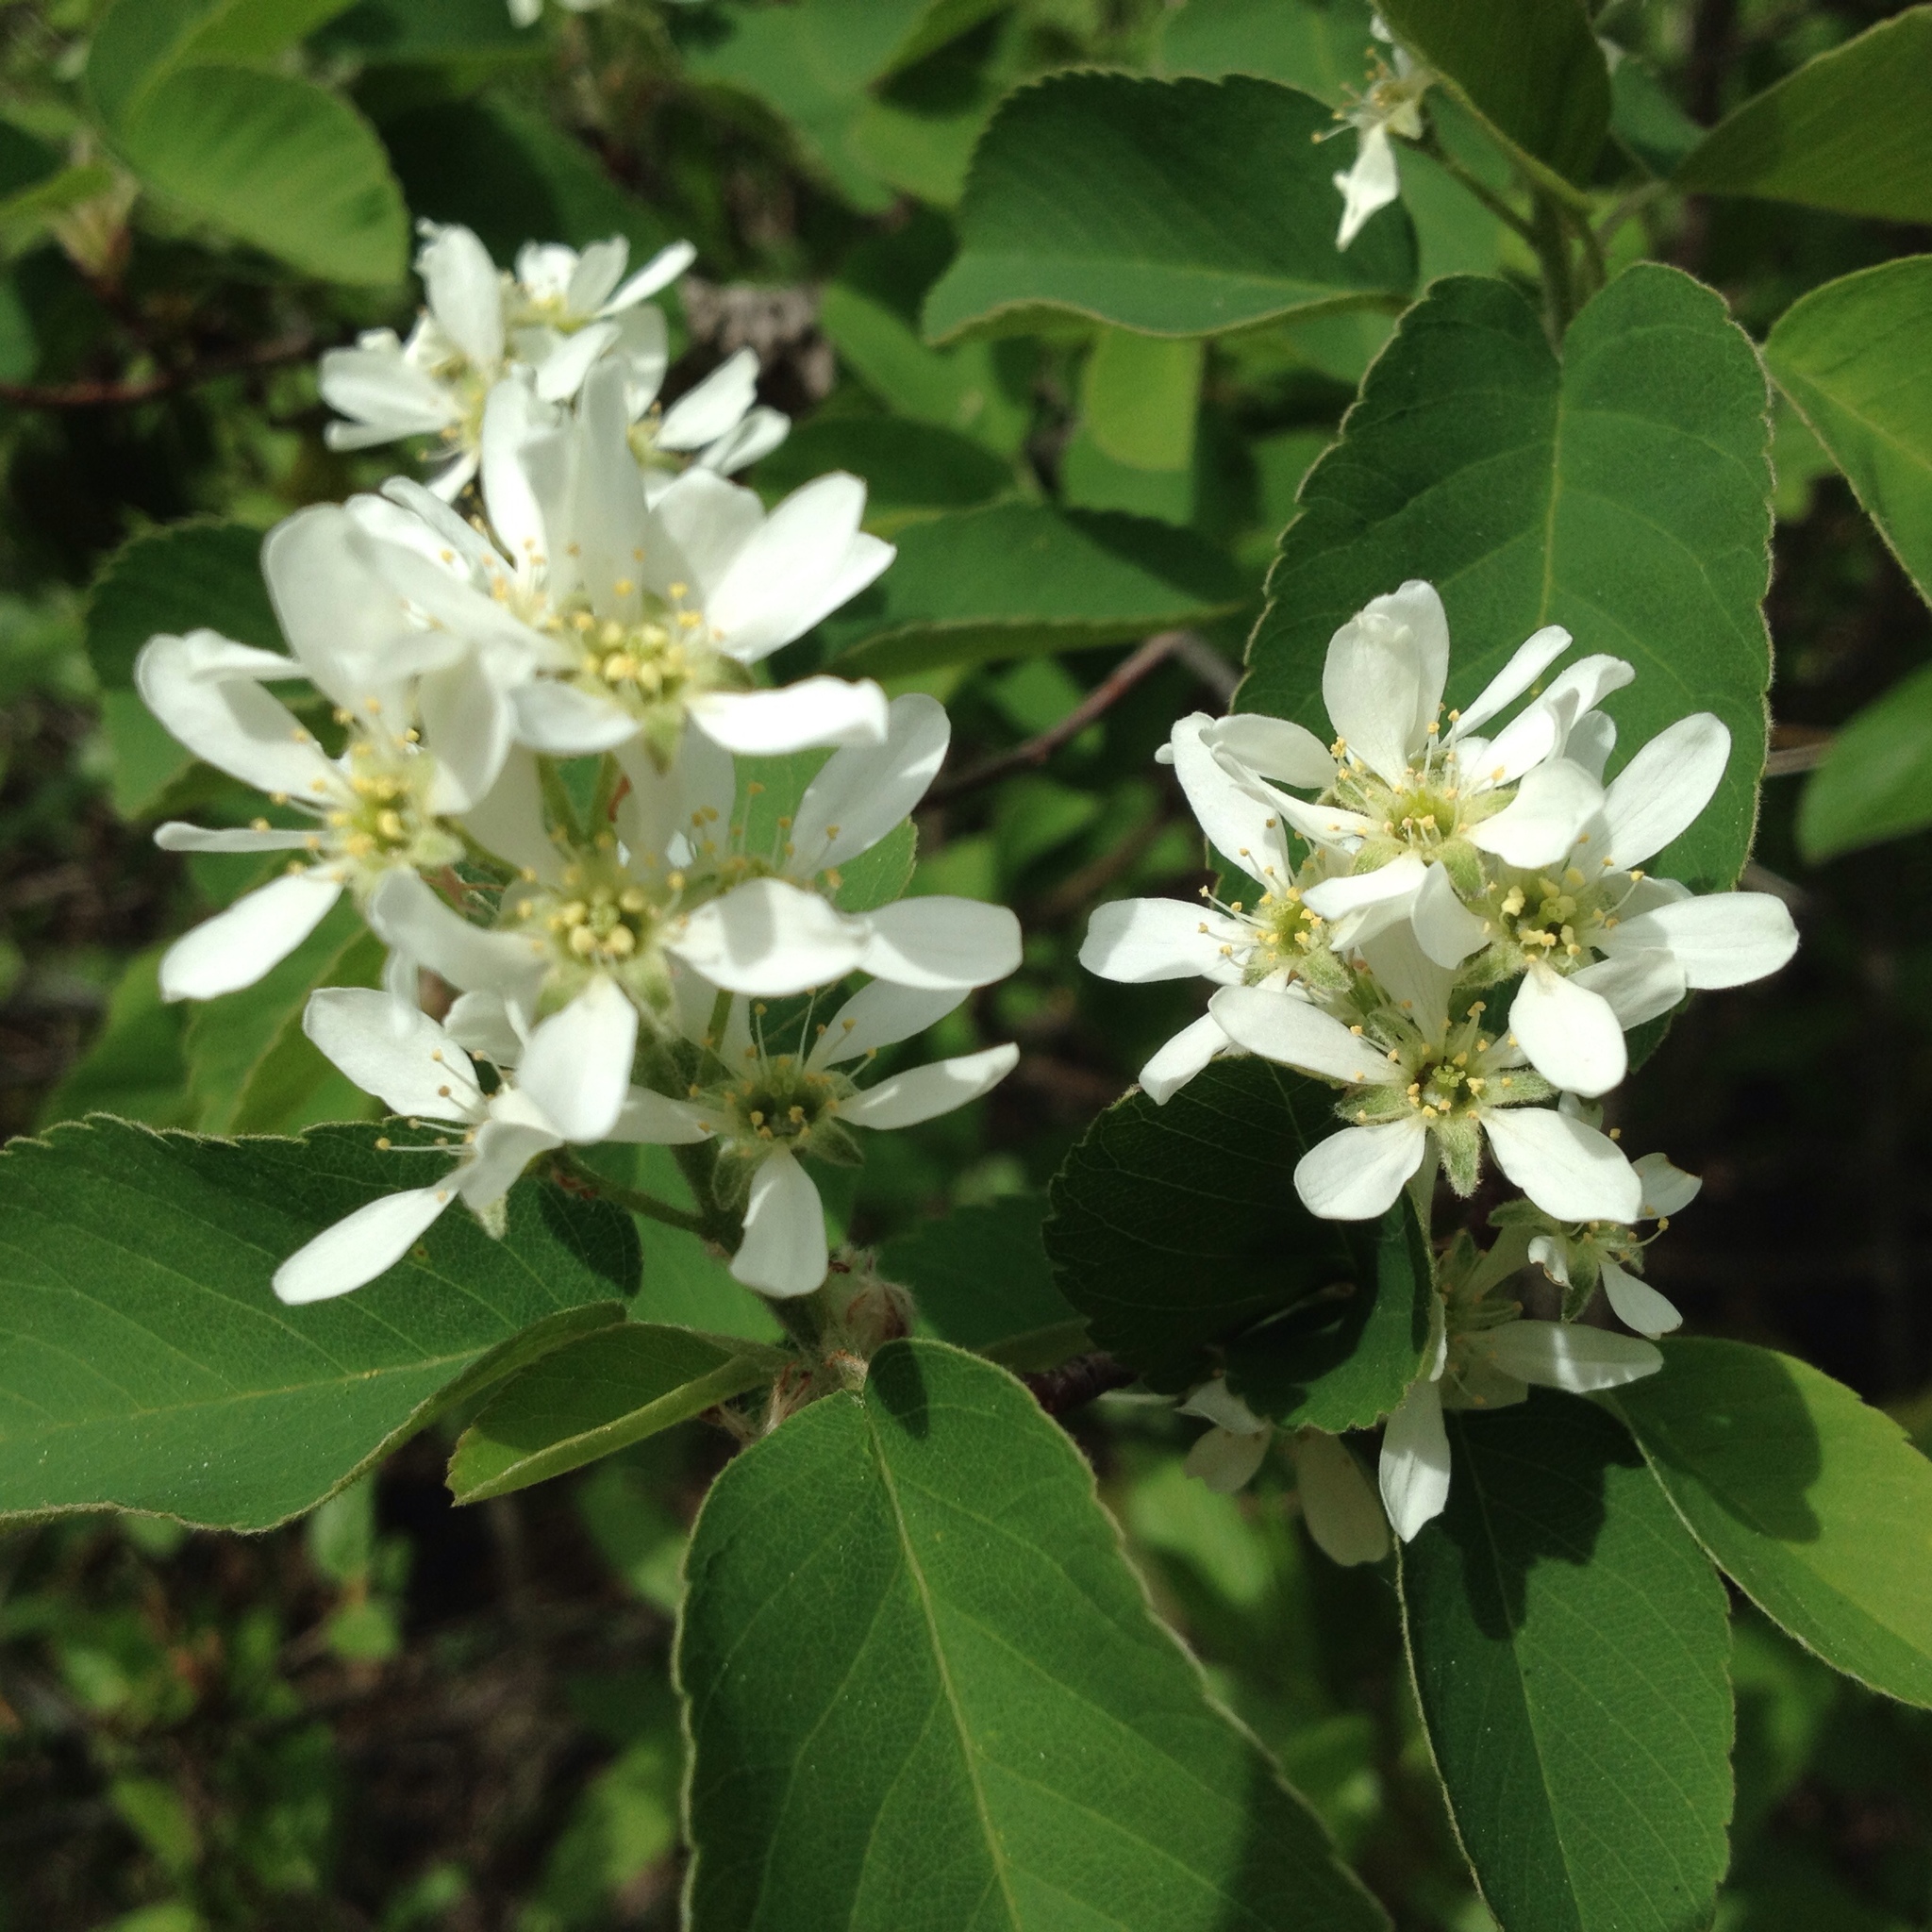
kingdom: Plantae
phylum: Tracheophyta
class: Magnoliopsida
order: Rosales
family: Rosaceae
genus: Amelanchier
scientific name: Amelanchier alnifolia
